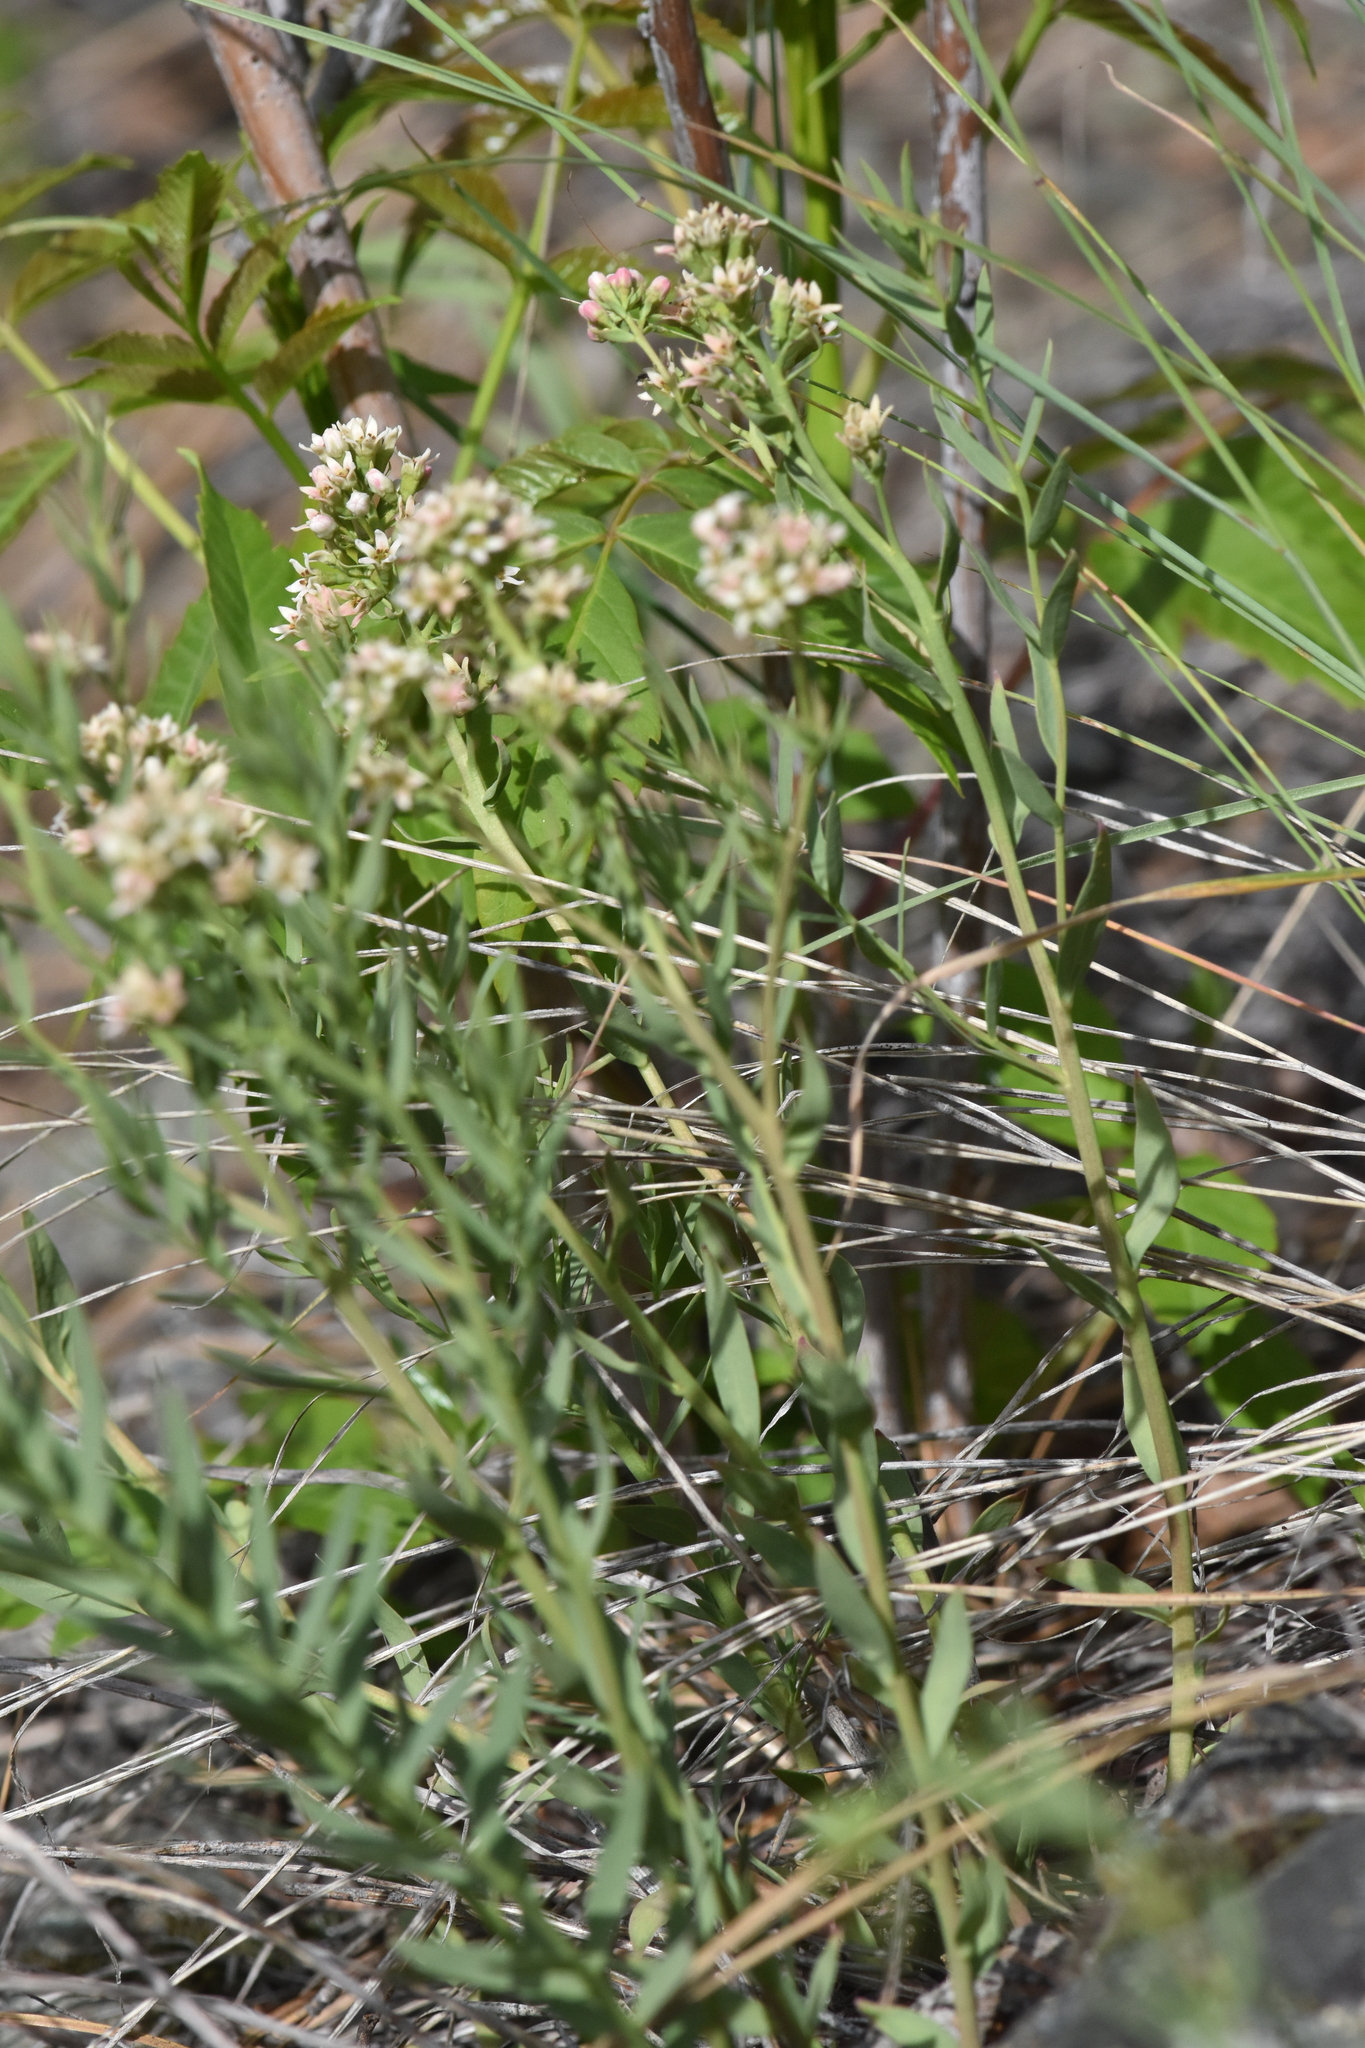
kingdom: Plantae
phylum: Tracheophyta
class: Magnoliopsida
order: Santalales
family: Comandraceae
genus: Comandra
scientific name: Comandra umbellata
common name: Bastard toadflax
